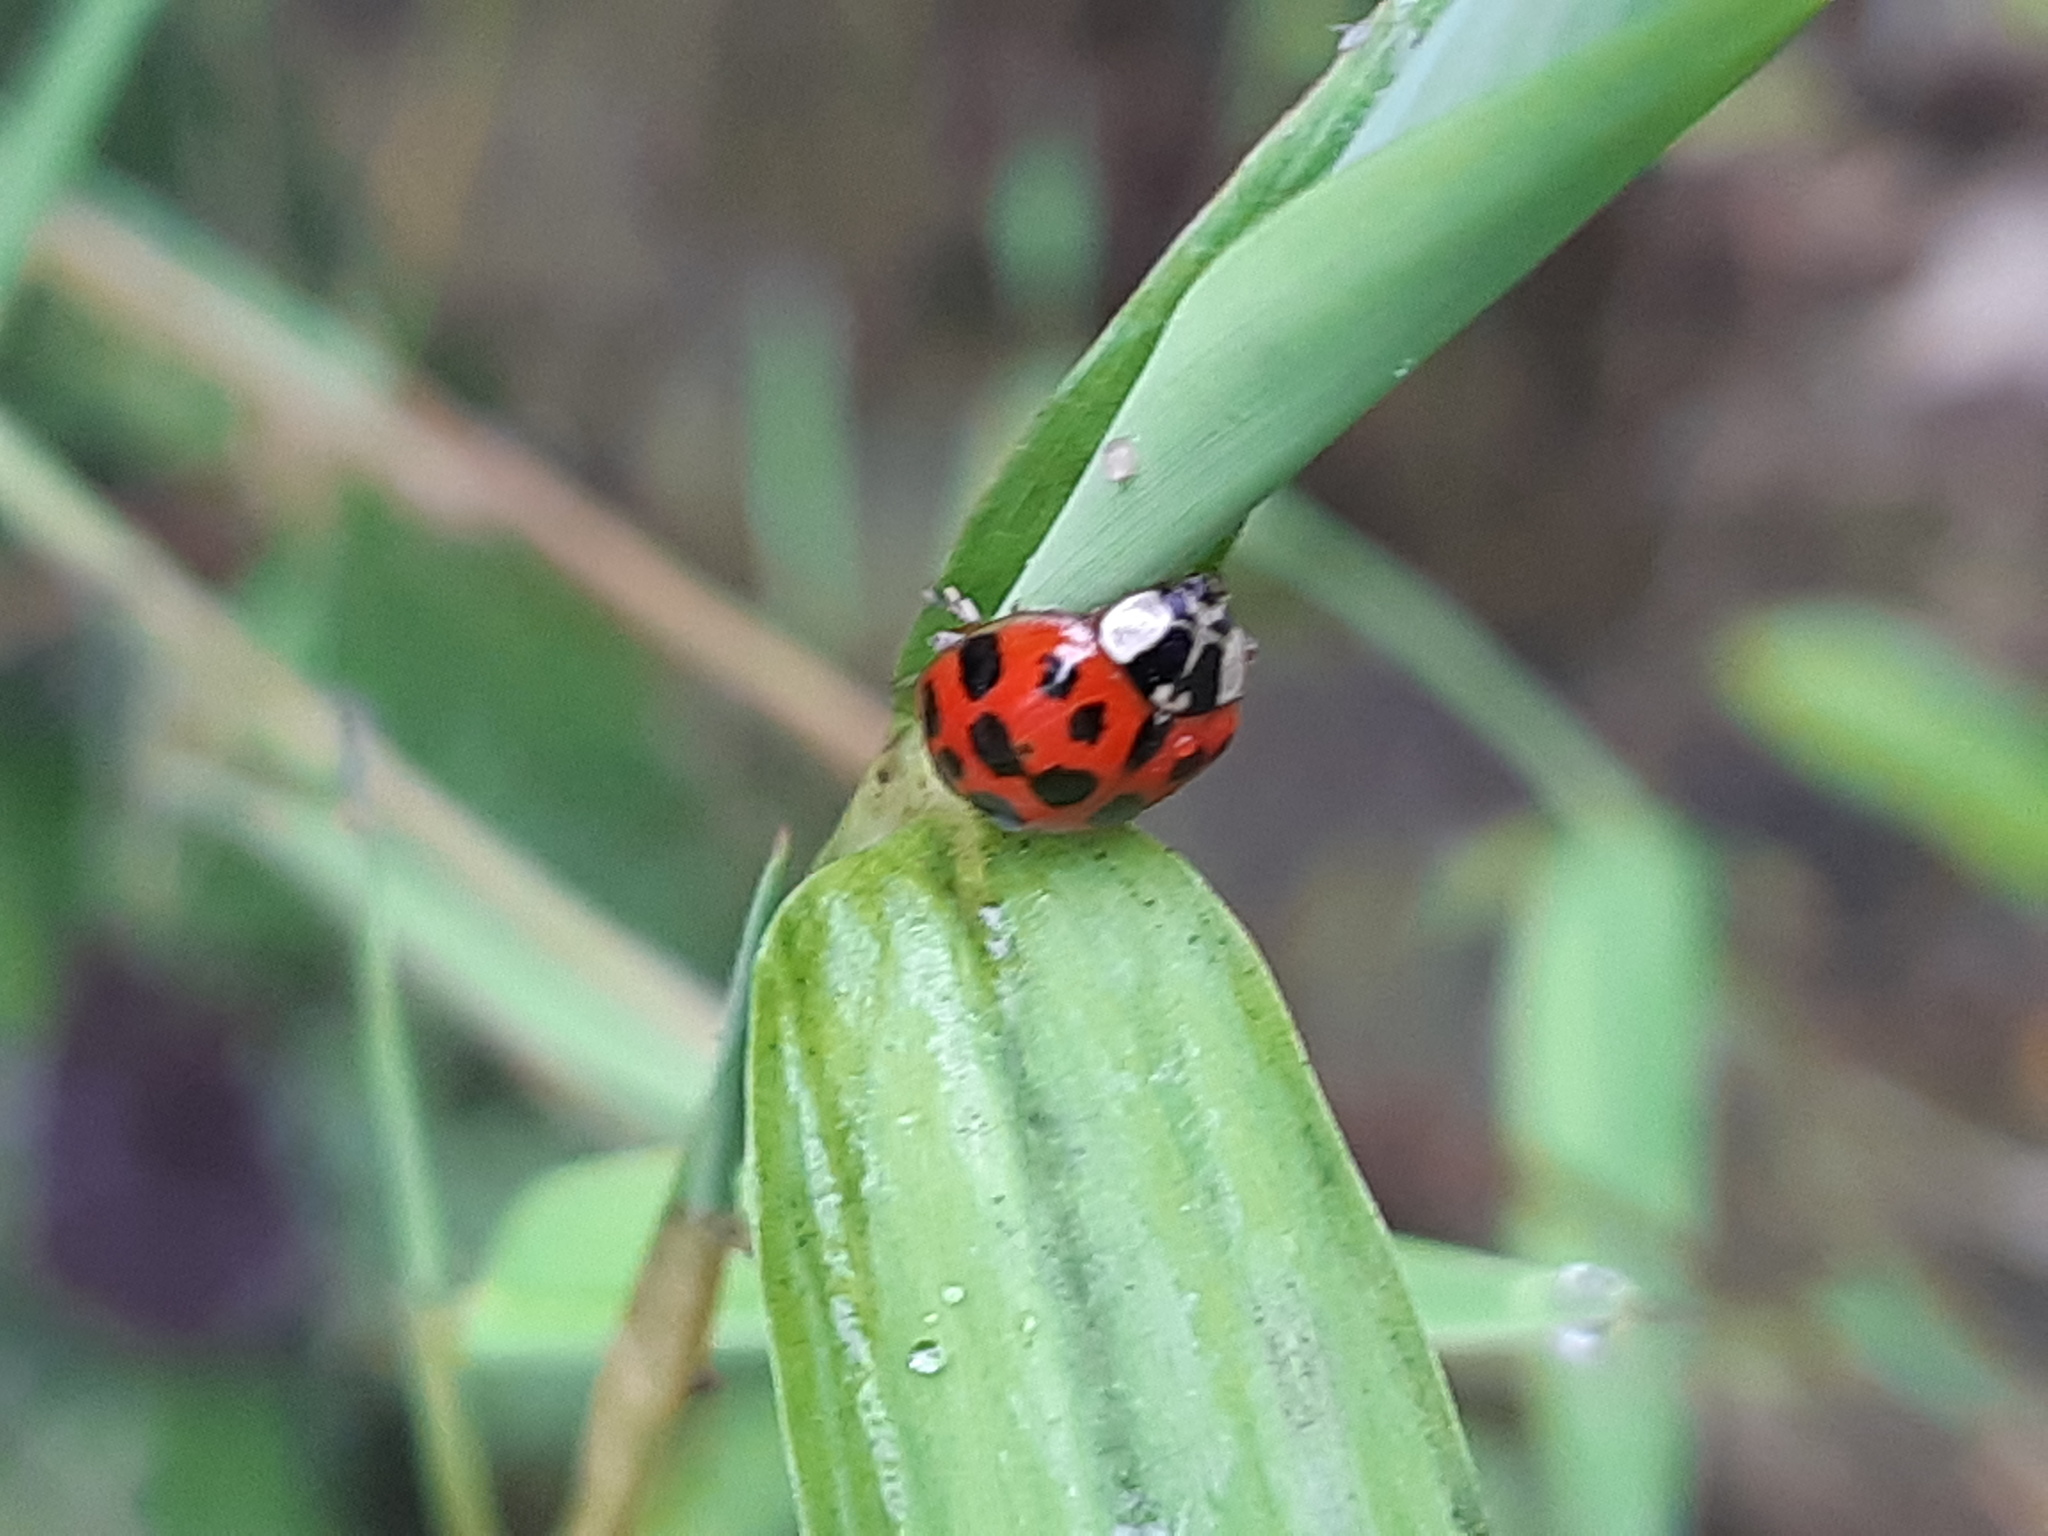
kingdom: Animalia
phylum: Arthropoda
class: Insecta
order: Coleoptera
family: Coccinellidae
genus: Harmonia
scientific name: Harmonia axyridis
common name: Harlequin ladybird
